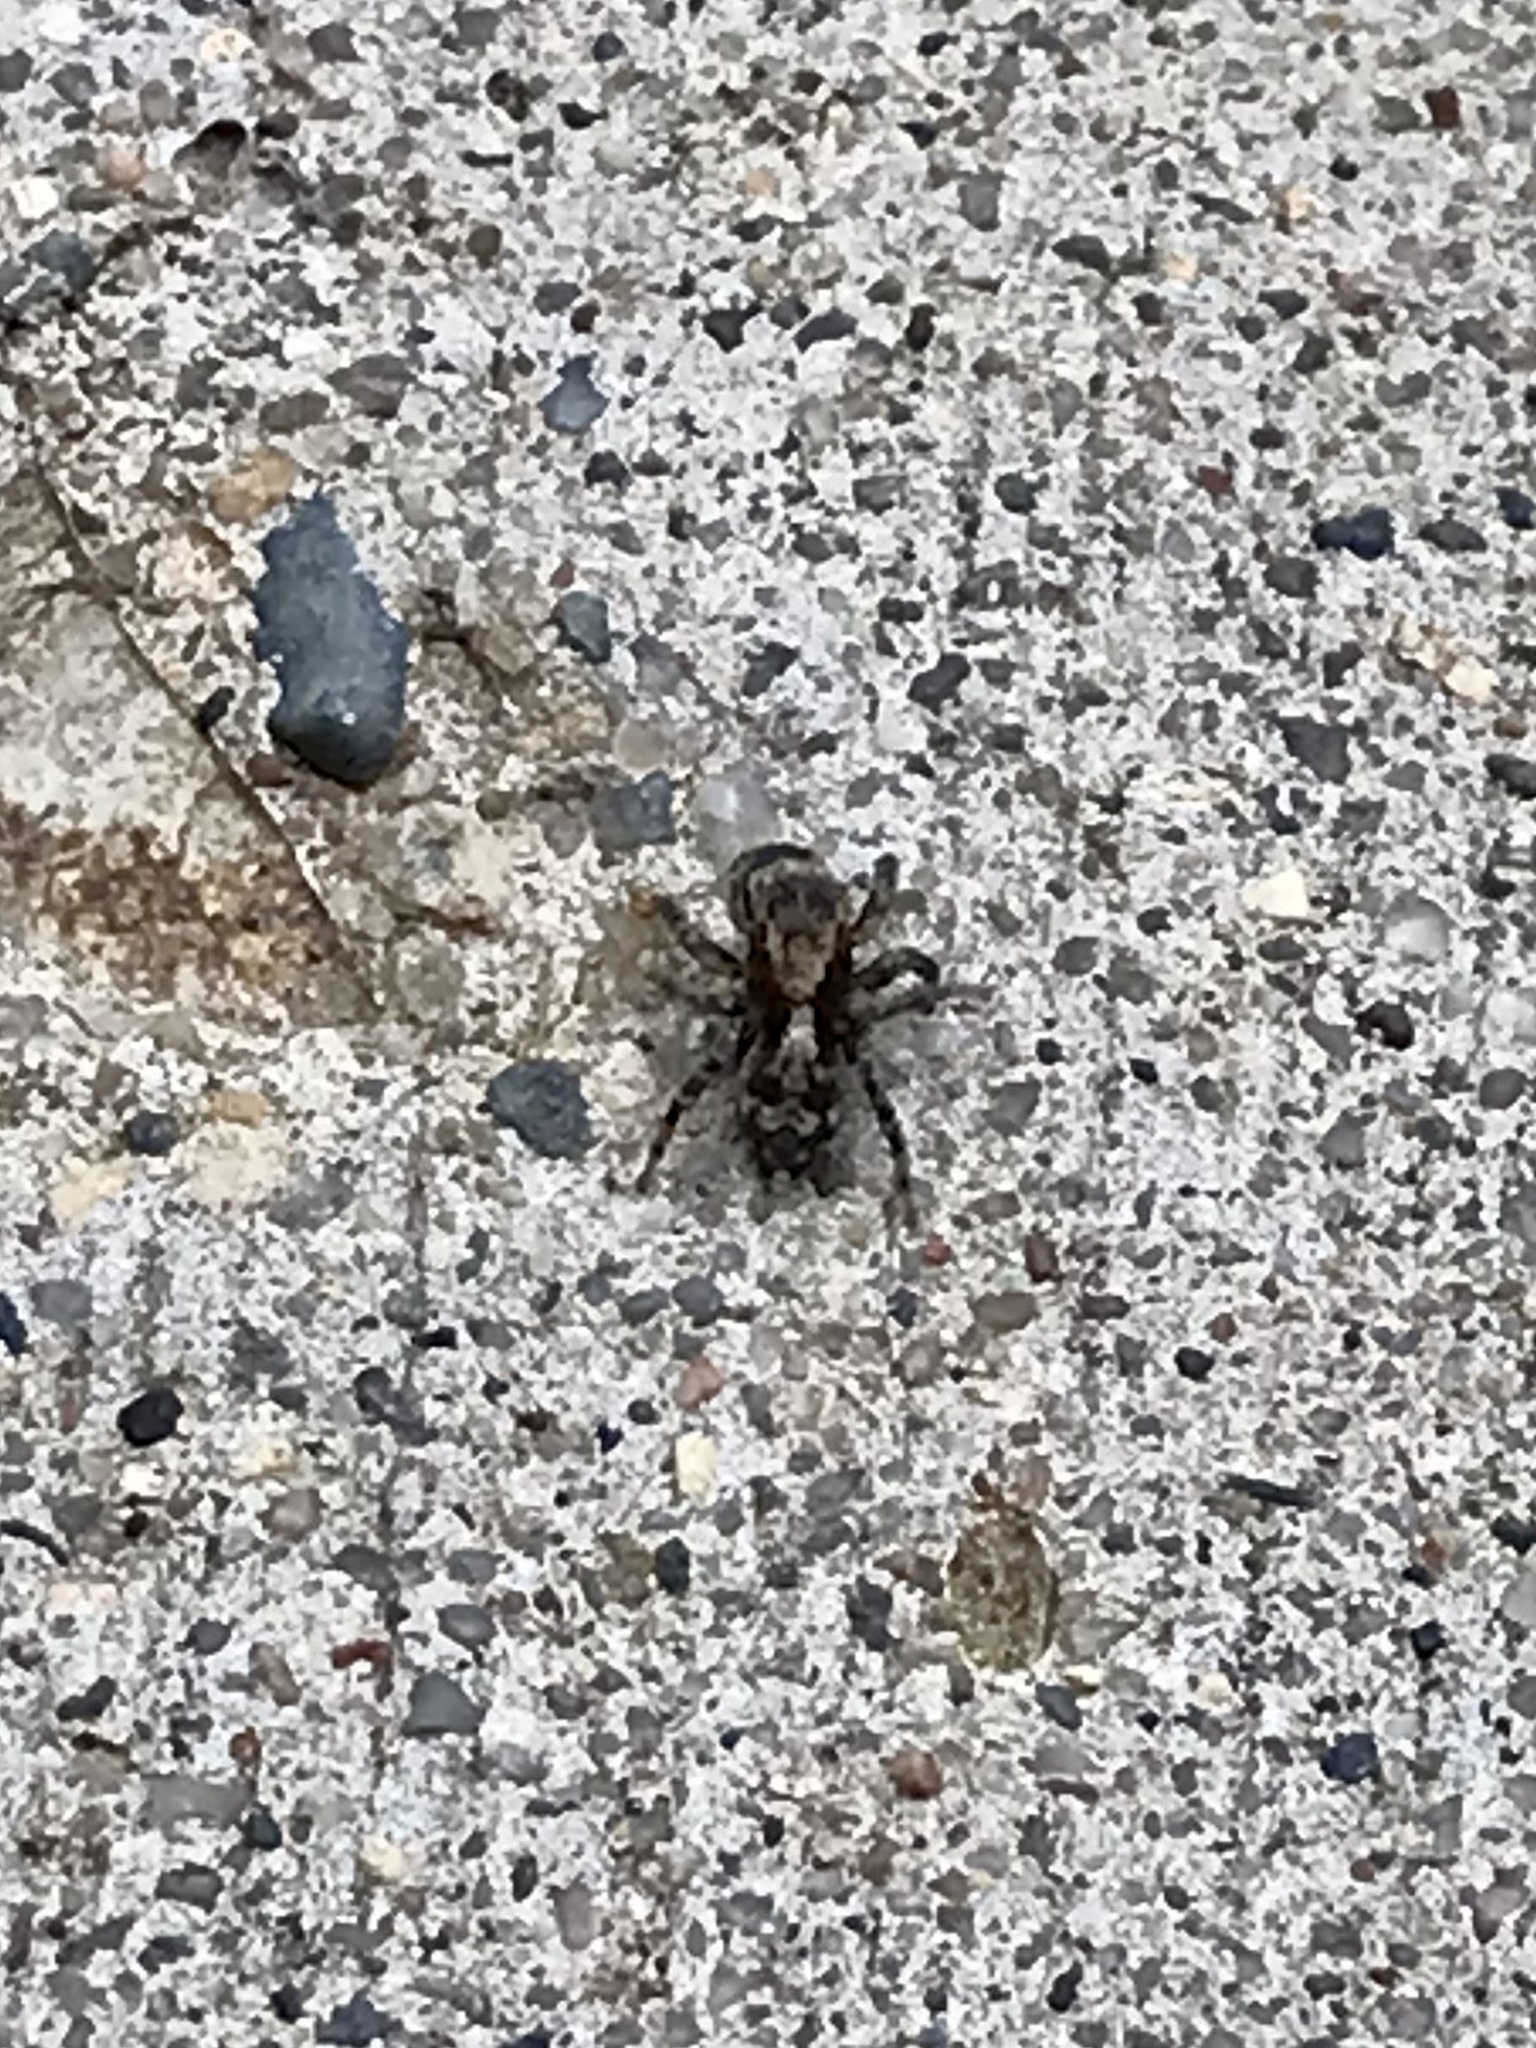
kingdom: Animalia
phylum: Arthropoda
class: Arachnida
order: Araneae
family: Salticidae
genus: Naphrys
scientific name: Naphrys pulex
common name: Flea jumping spider
